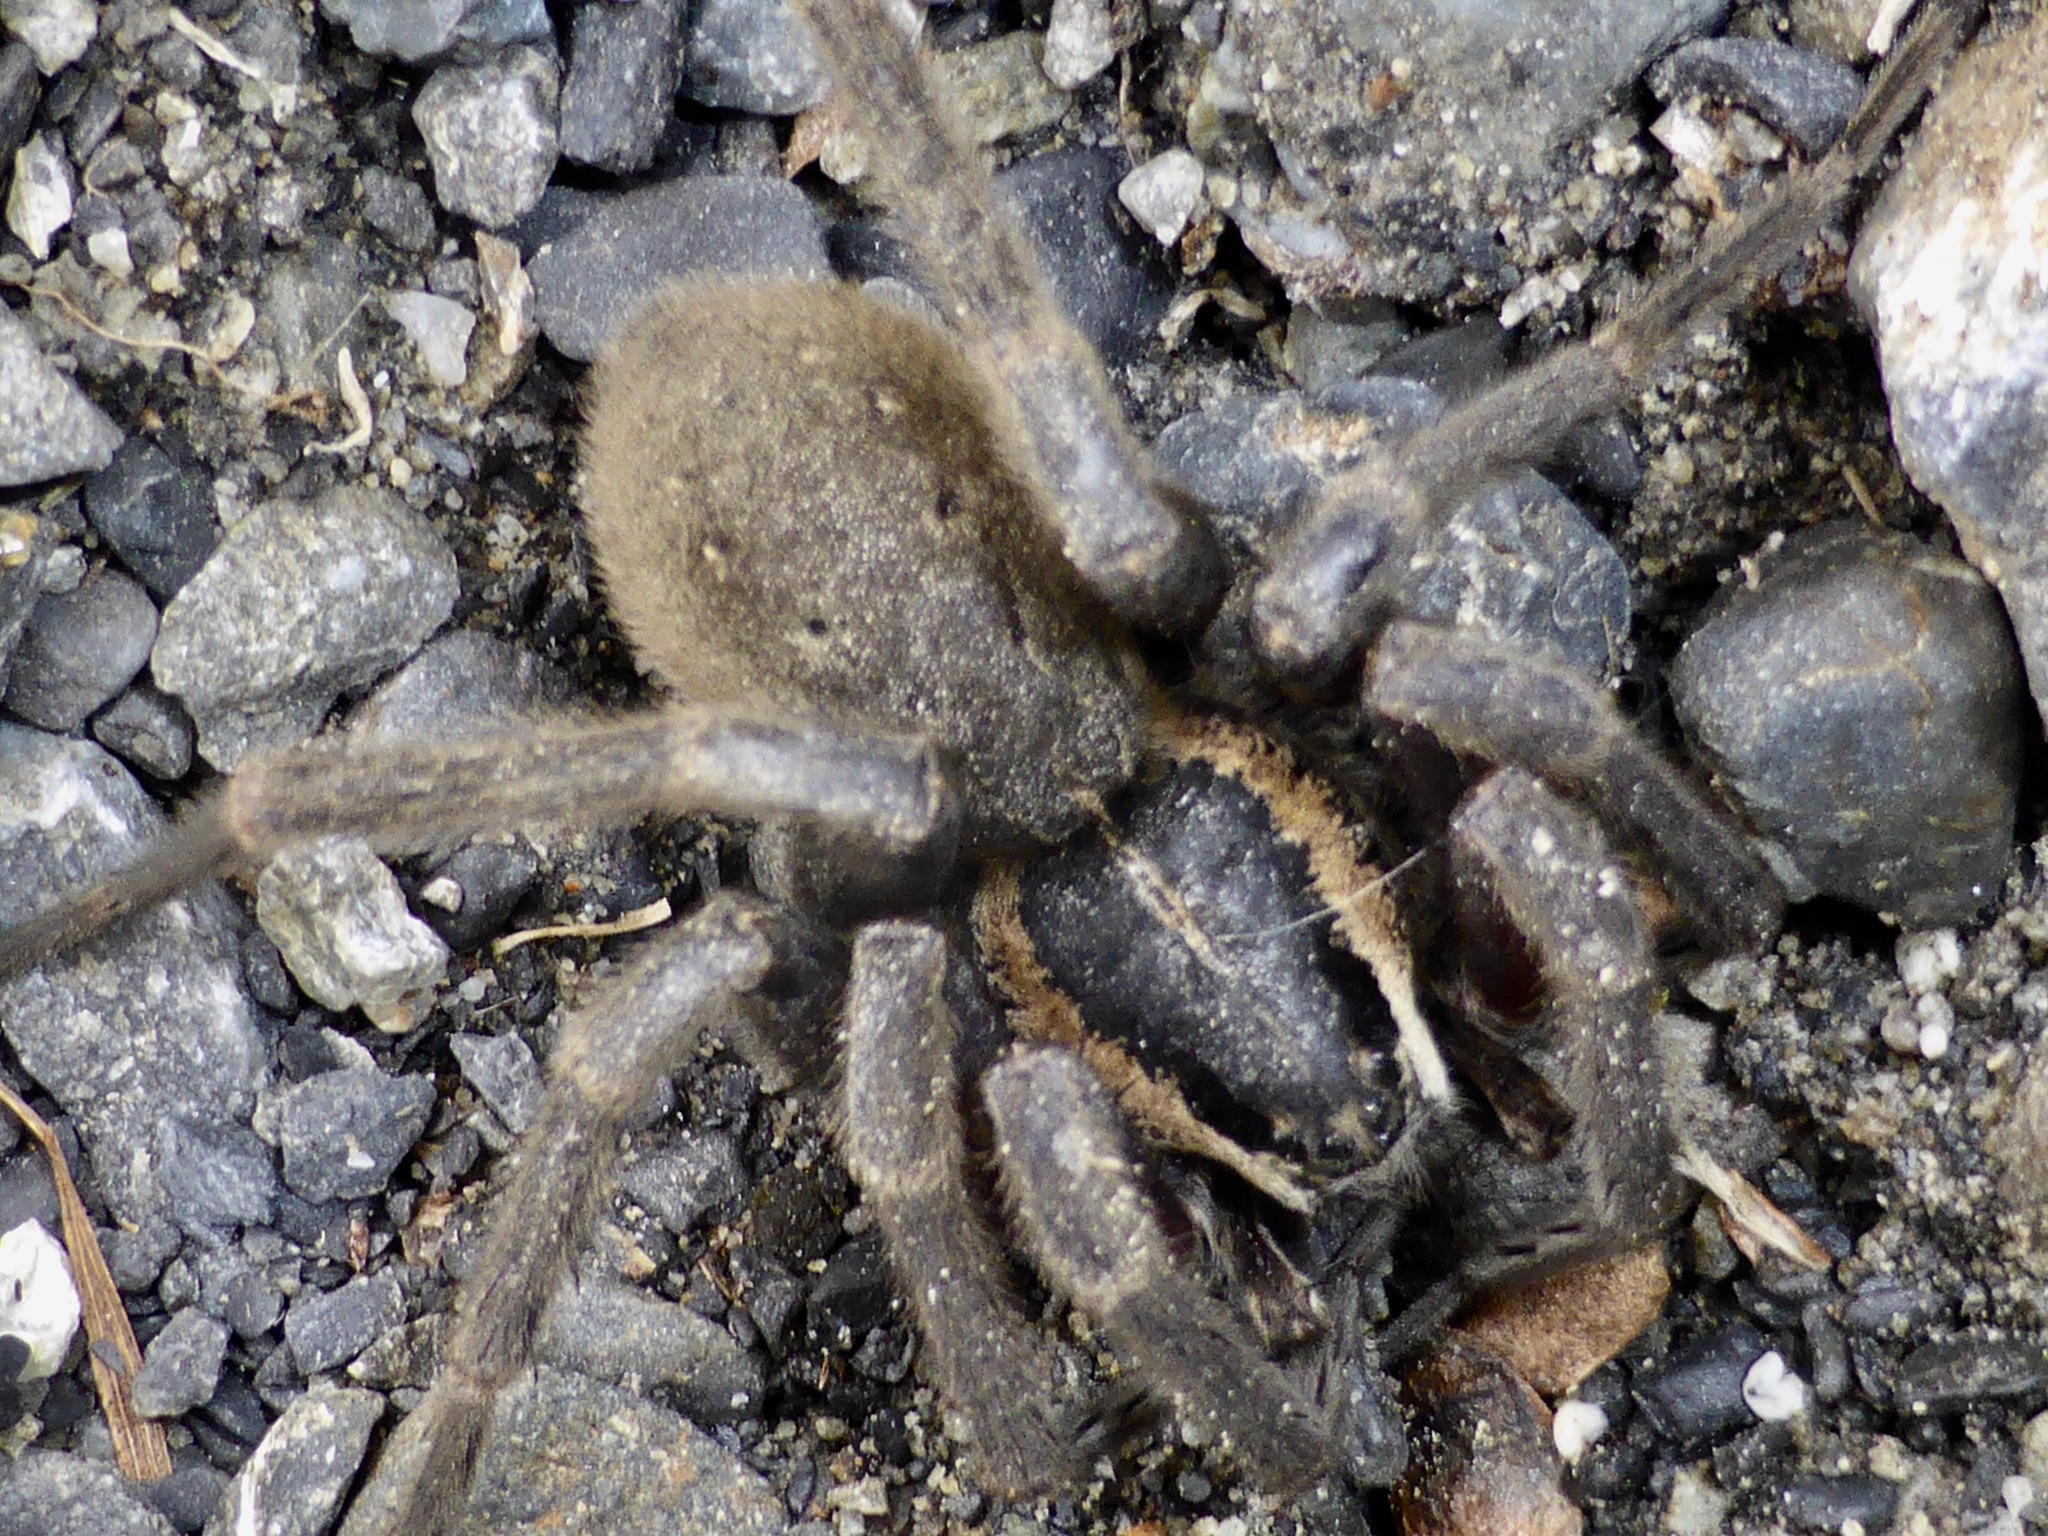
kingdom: Animalia
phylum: Arthropoda
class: Arachnida
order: Araneae
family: Pisauridae
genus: Dolomedes
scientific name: Dolomedes aquaticus
